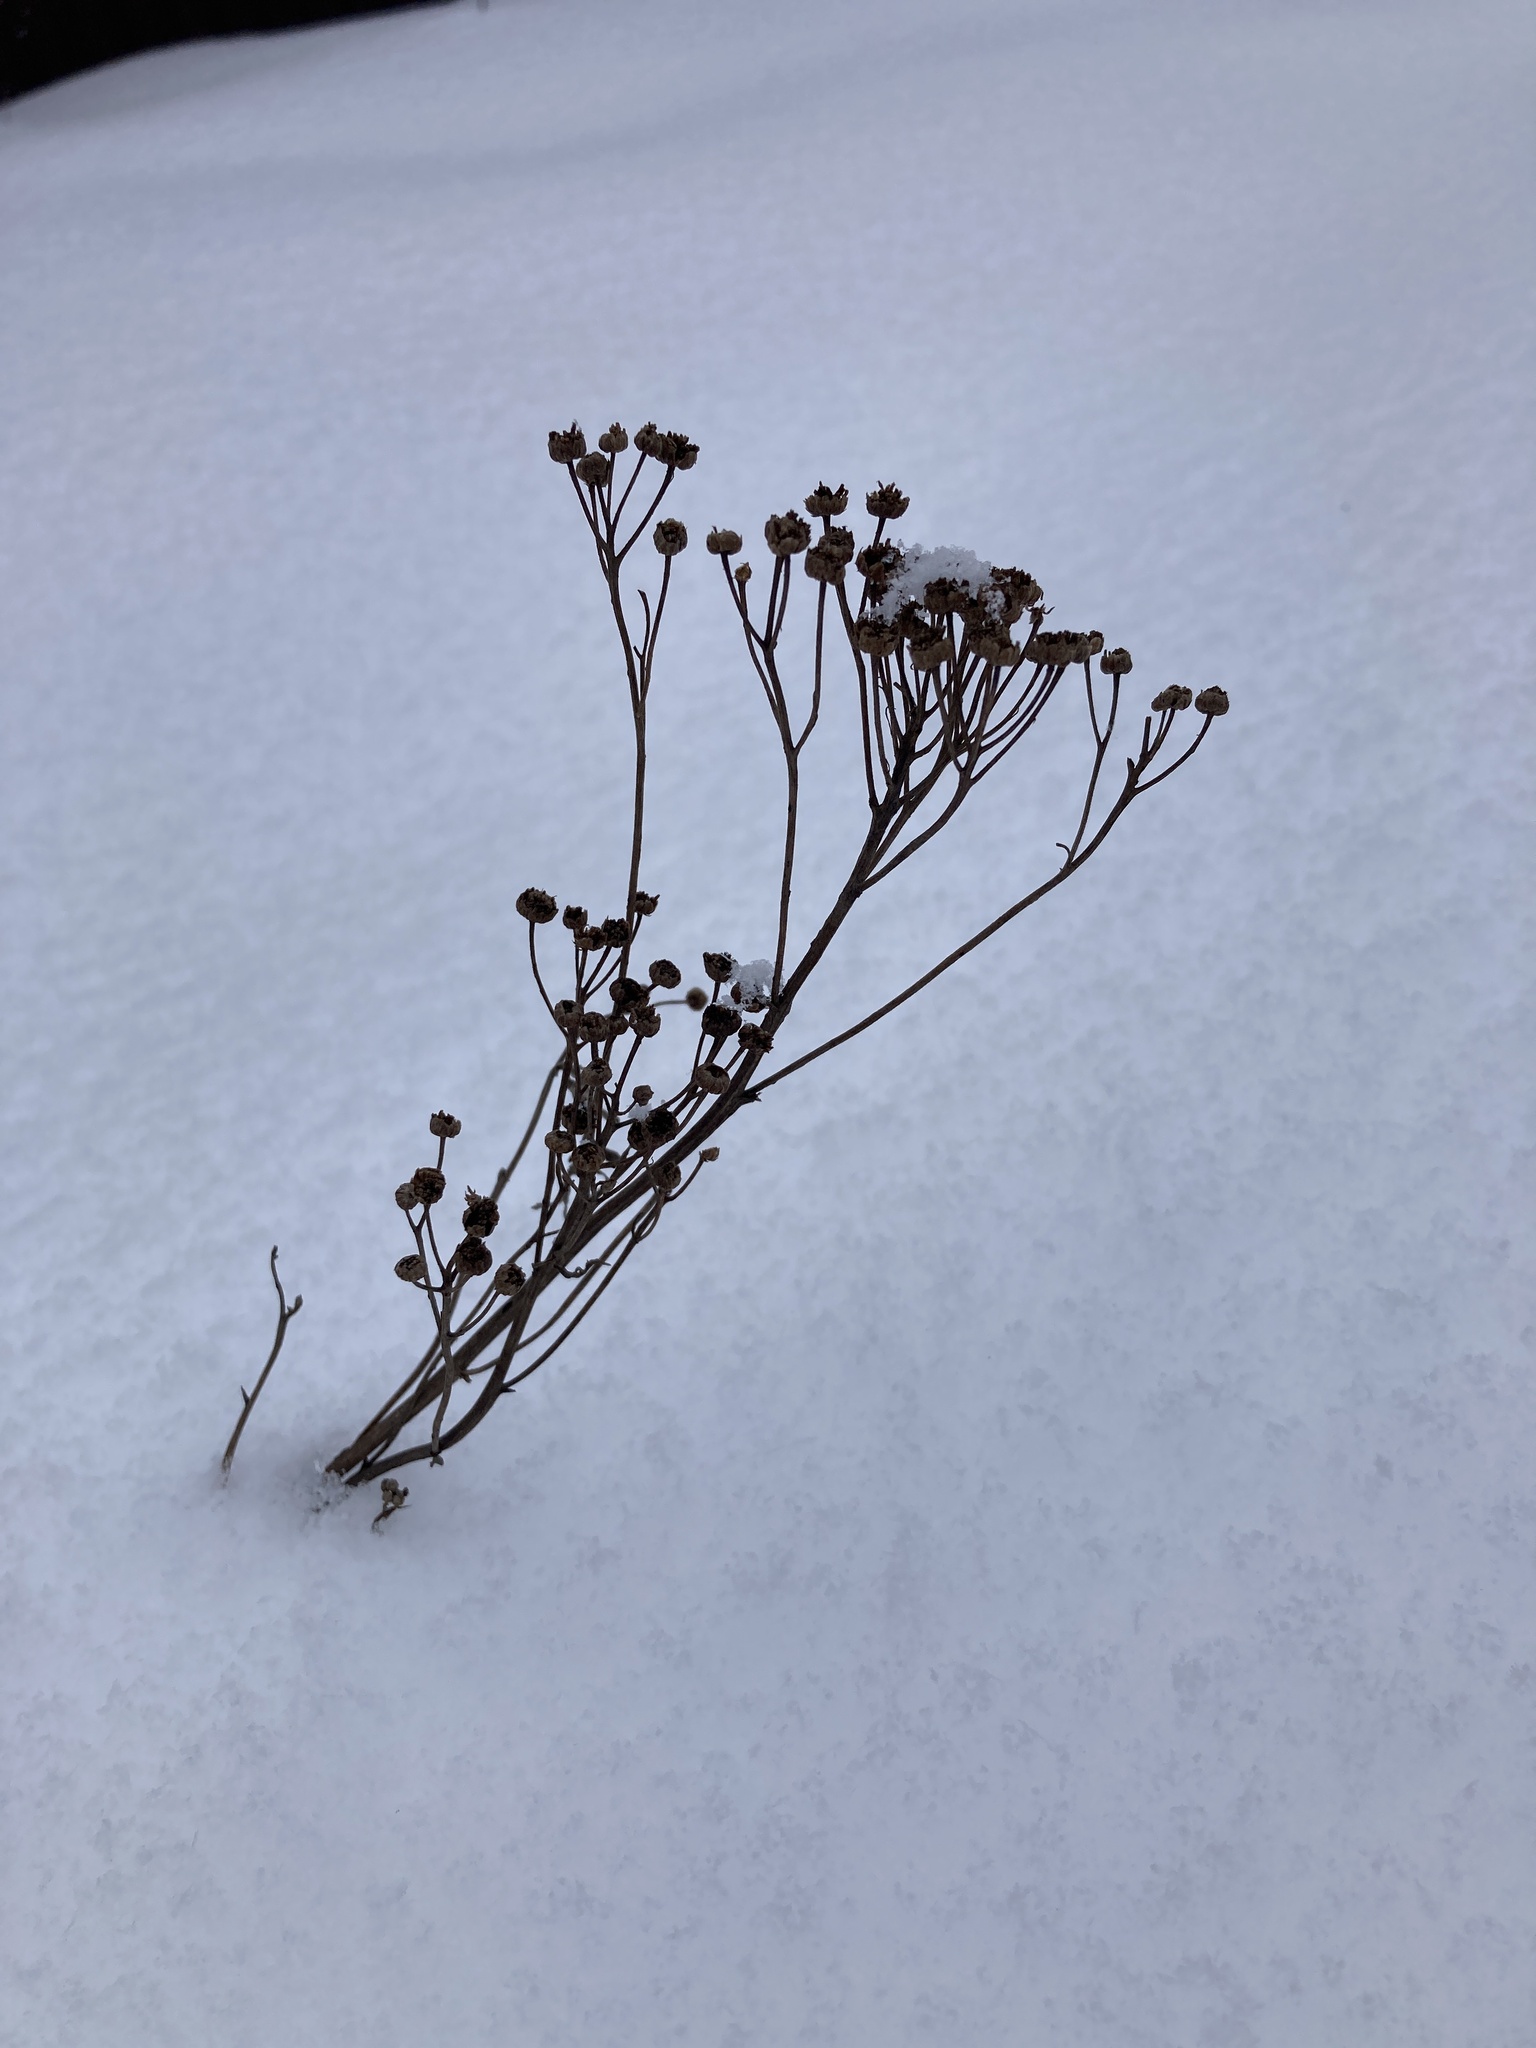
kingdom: Plantae
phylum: Tracheophyta
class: Magnoliopsida
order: Asterales
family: Asteraceae
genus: Tanacetum
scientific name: Tanacetum vulgare
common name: Common tansy
